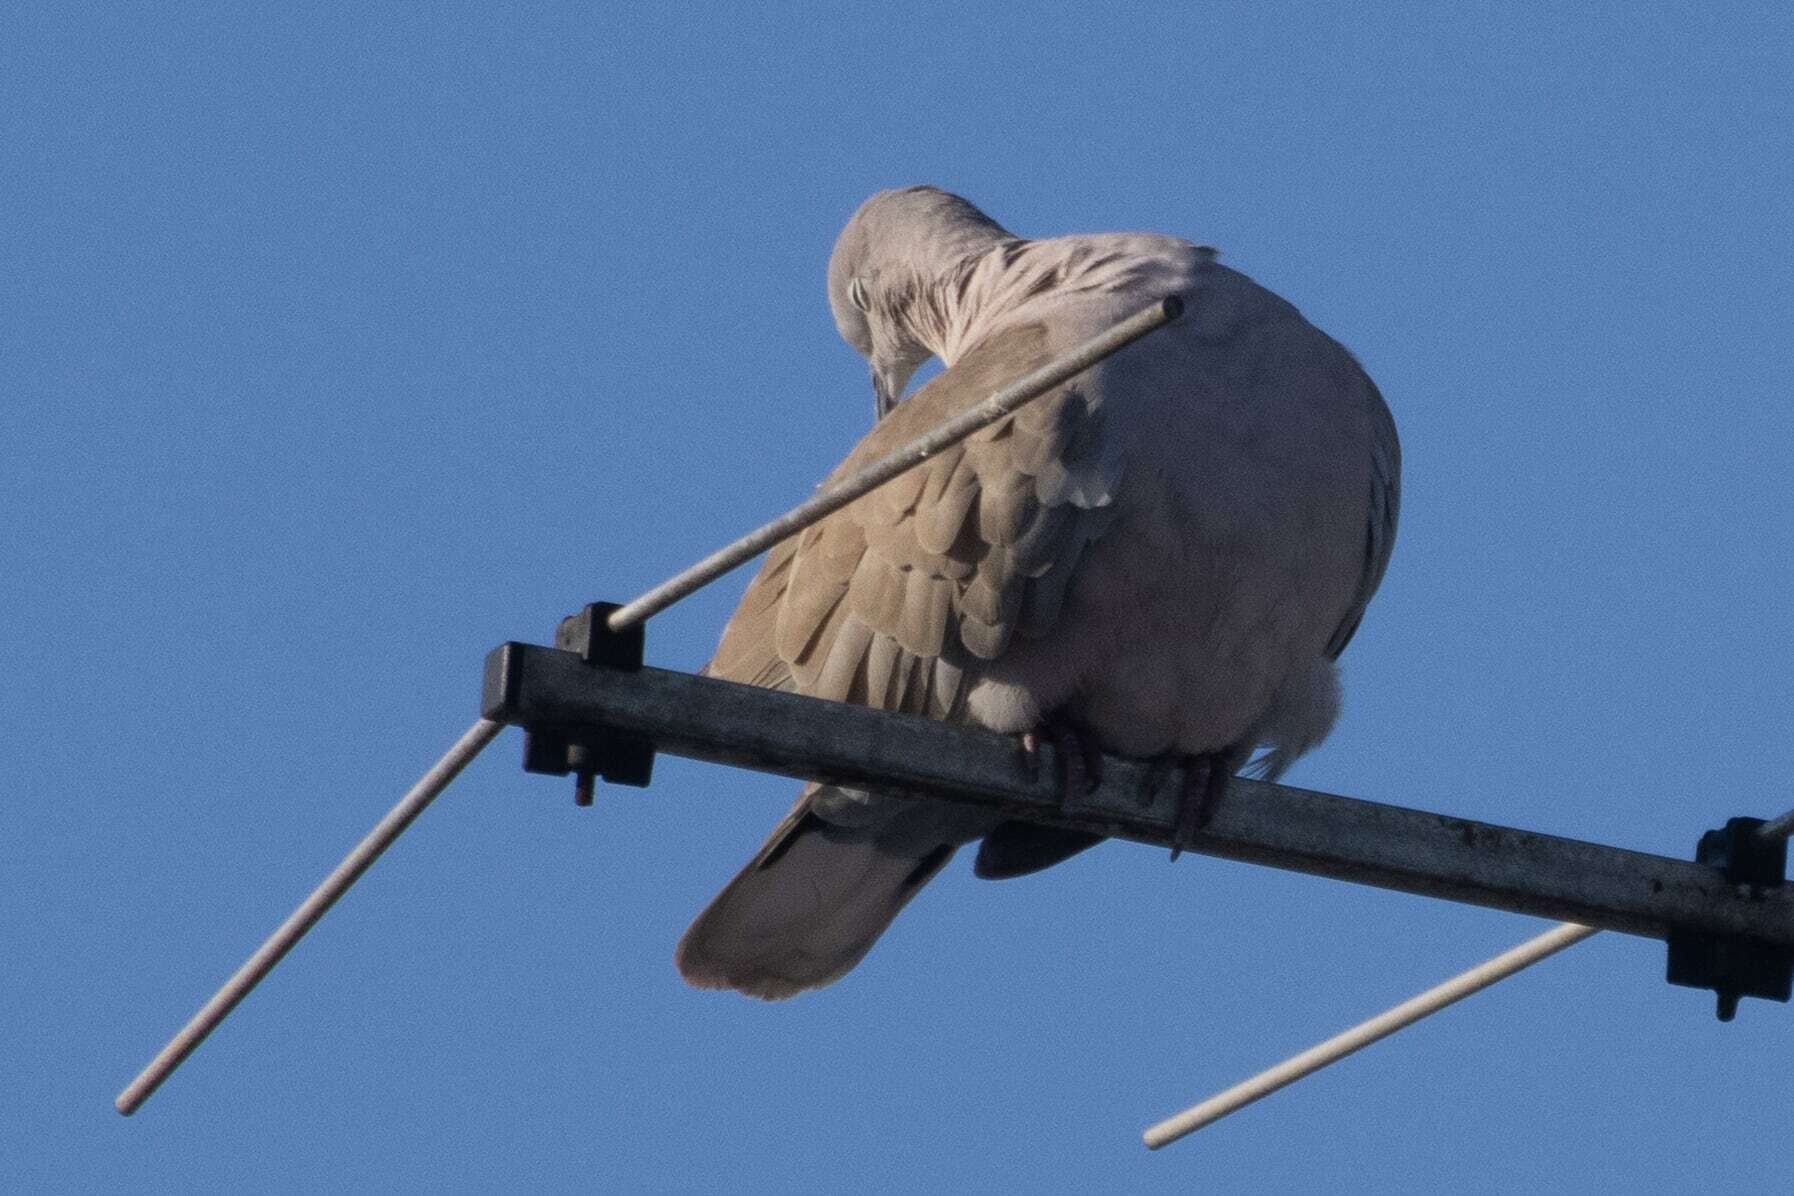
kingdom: Animalia
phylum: Chordata
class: Aves
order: Columbiformes
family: Columbidae
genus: Streptopelia
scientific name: Streptopelia decaocto
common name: Eurasian collared dove
